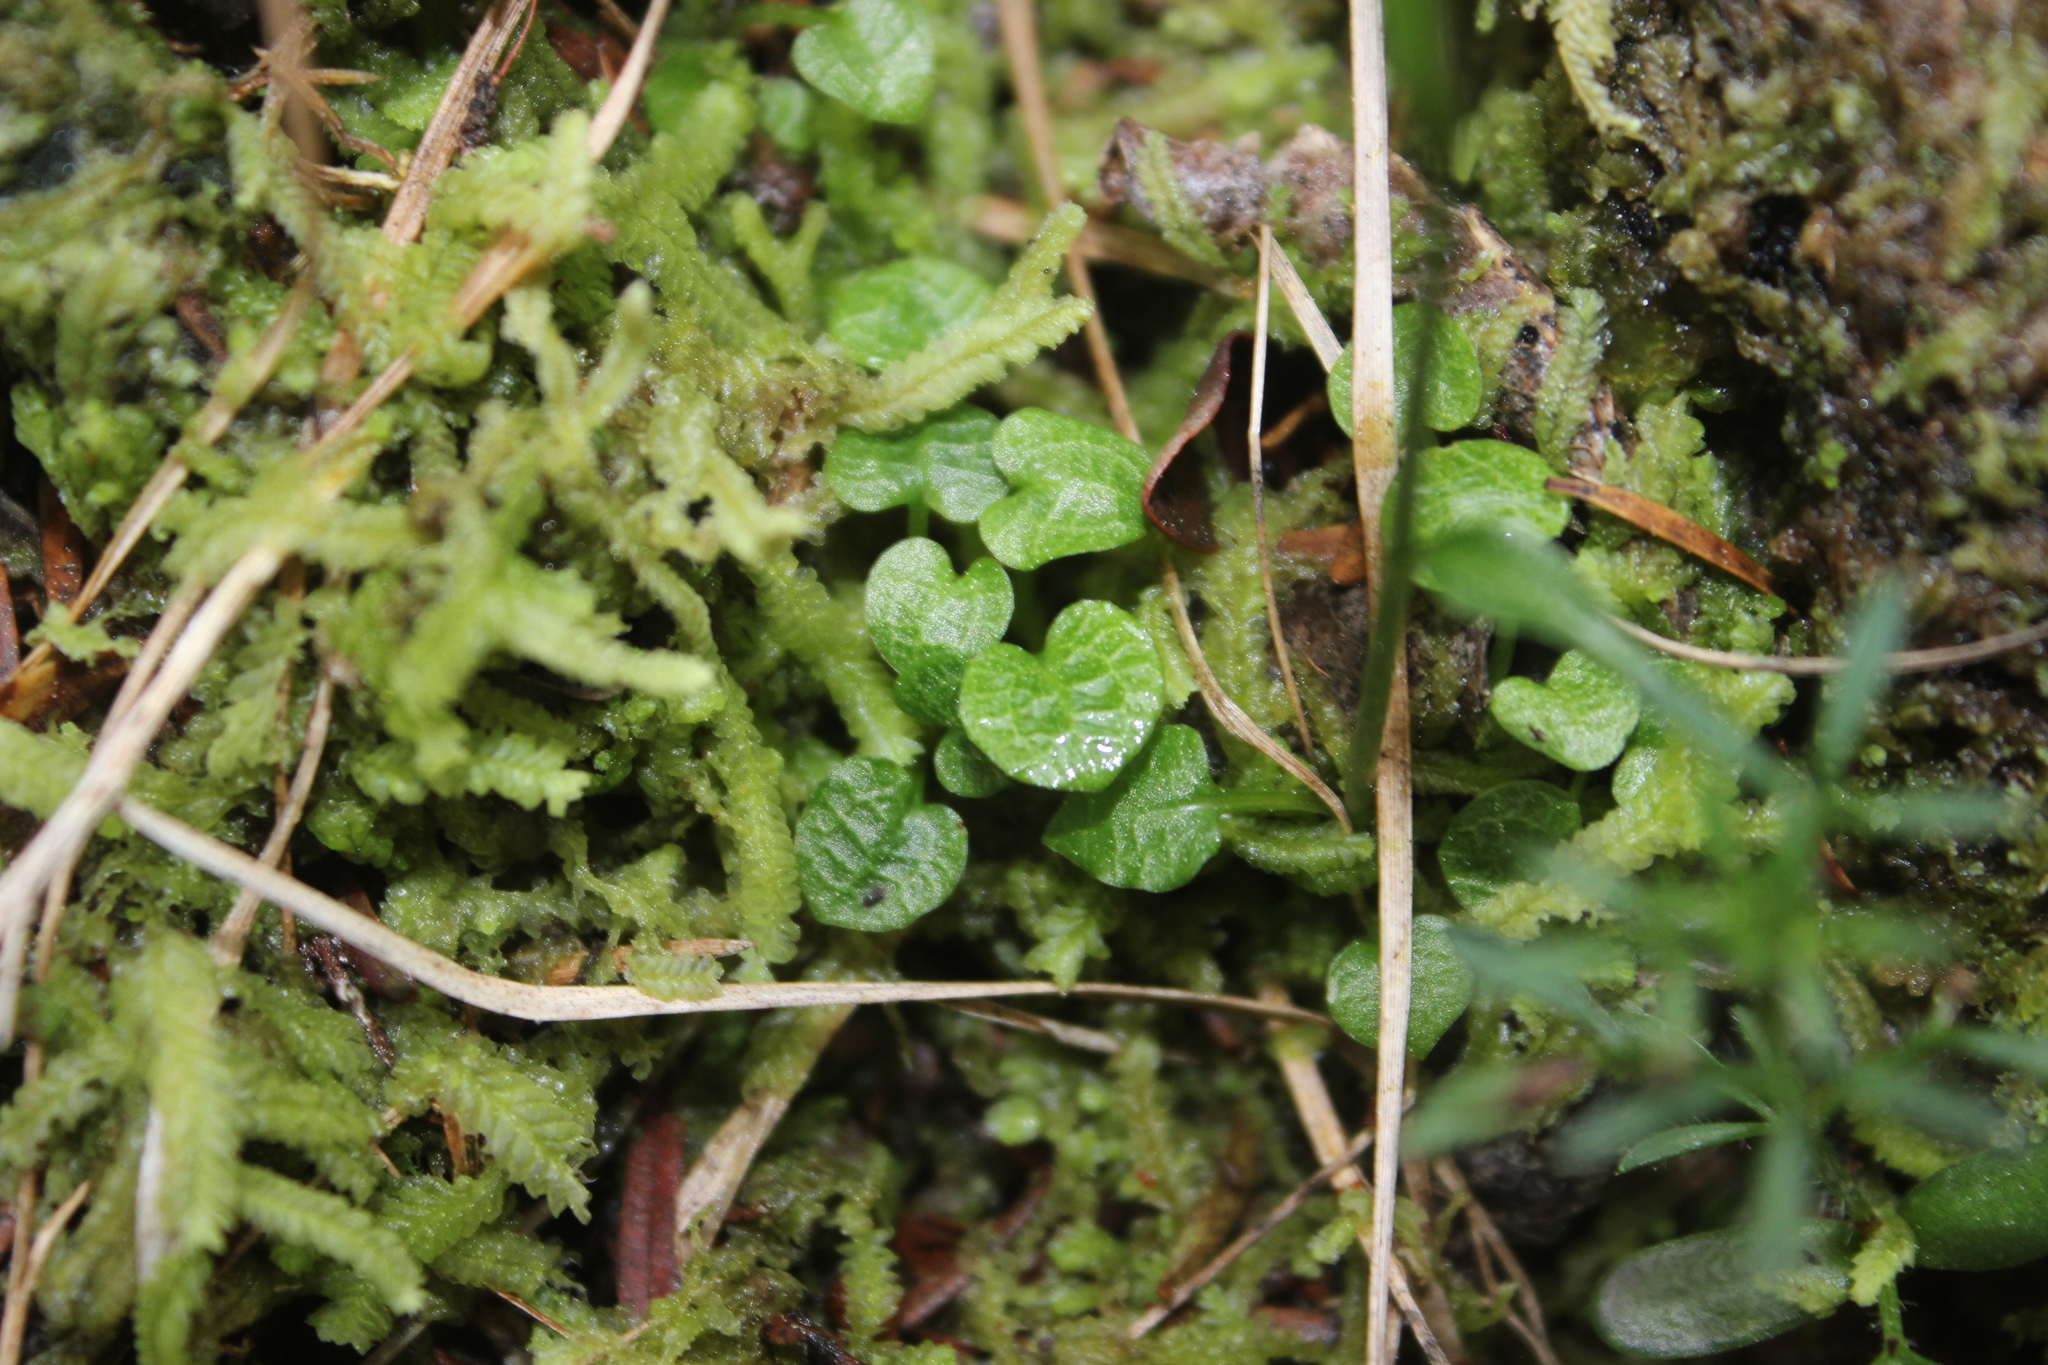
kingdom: Plantae
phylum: Tracheophyta
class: Liliopsida
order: Asparagales
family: Orchidaceae
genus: Pterostylis
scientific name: Pterostylis trullifolia
